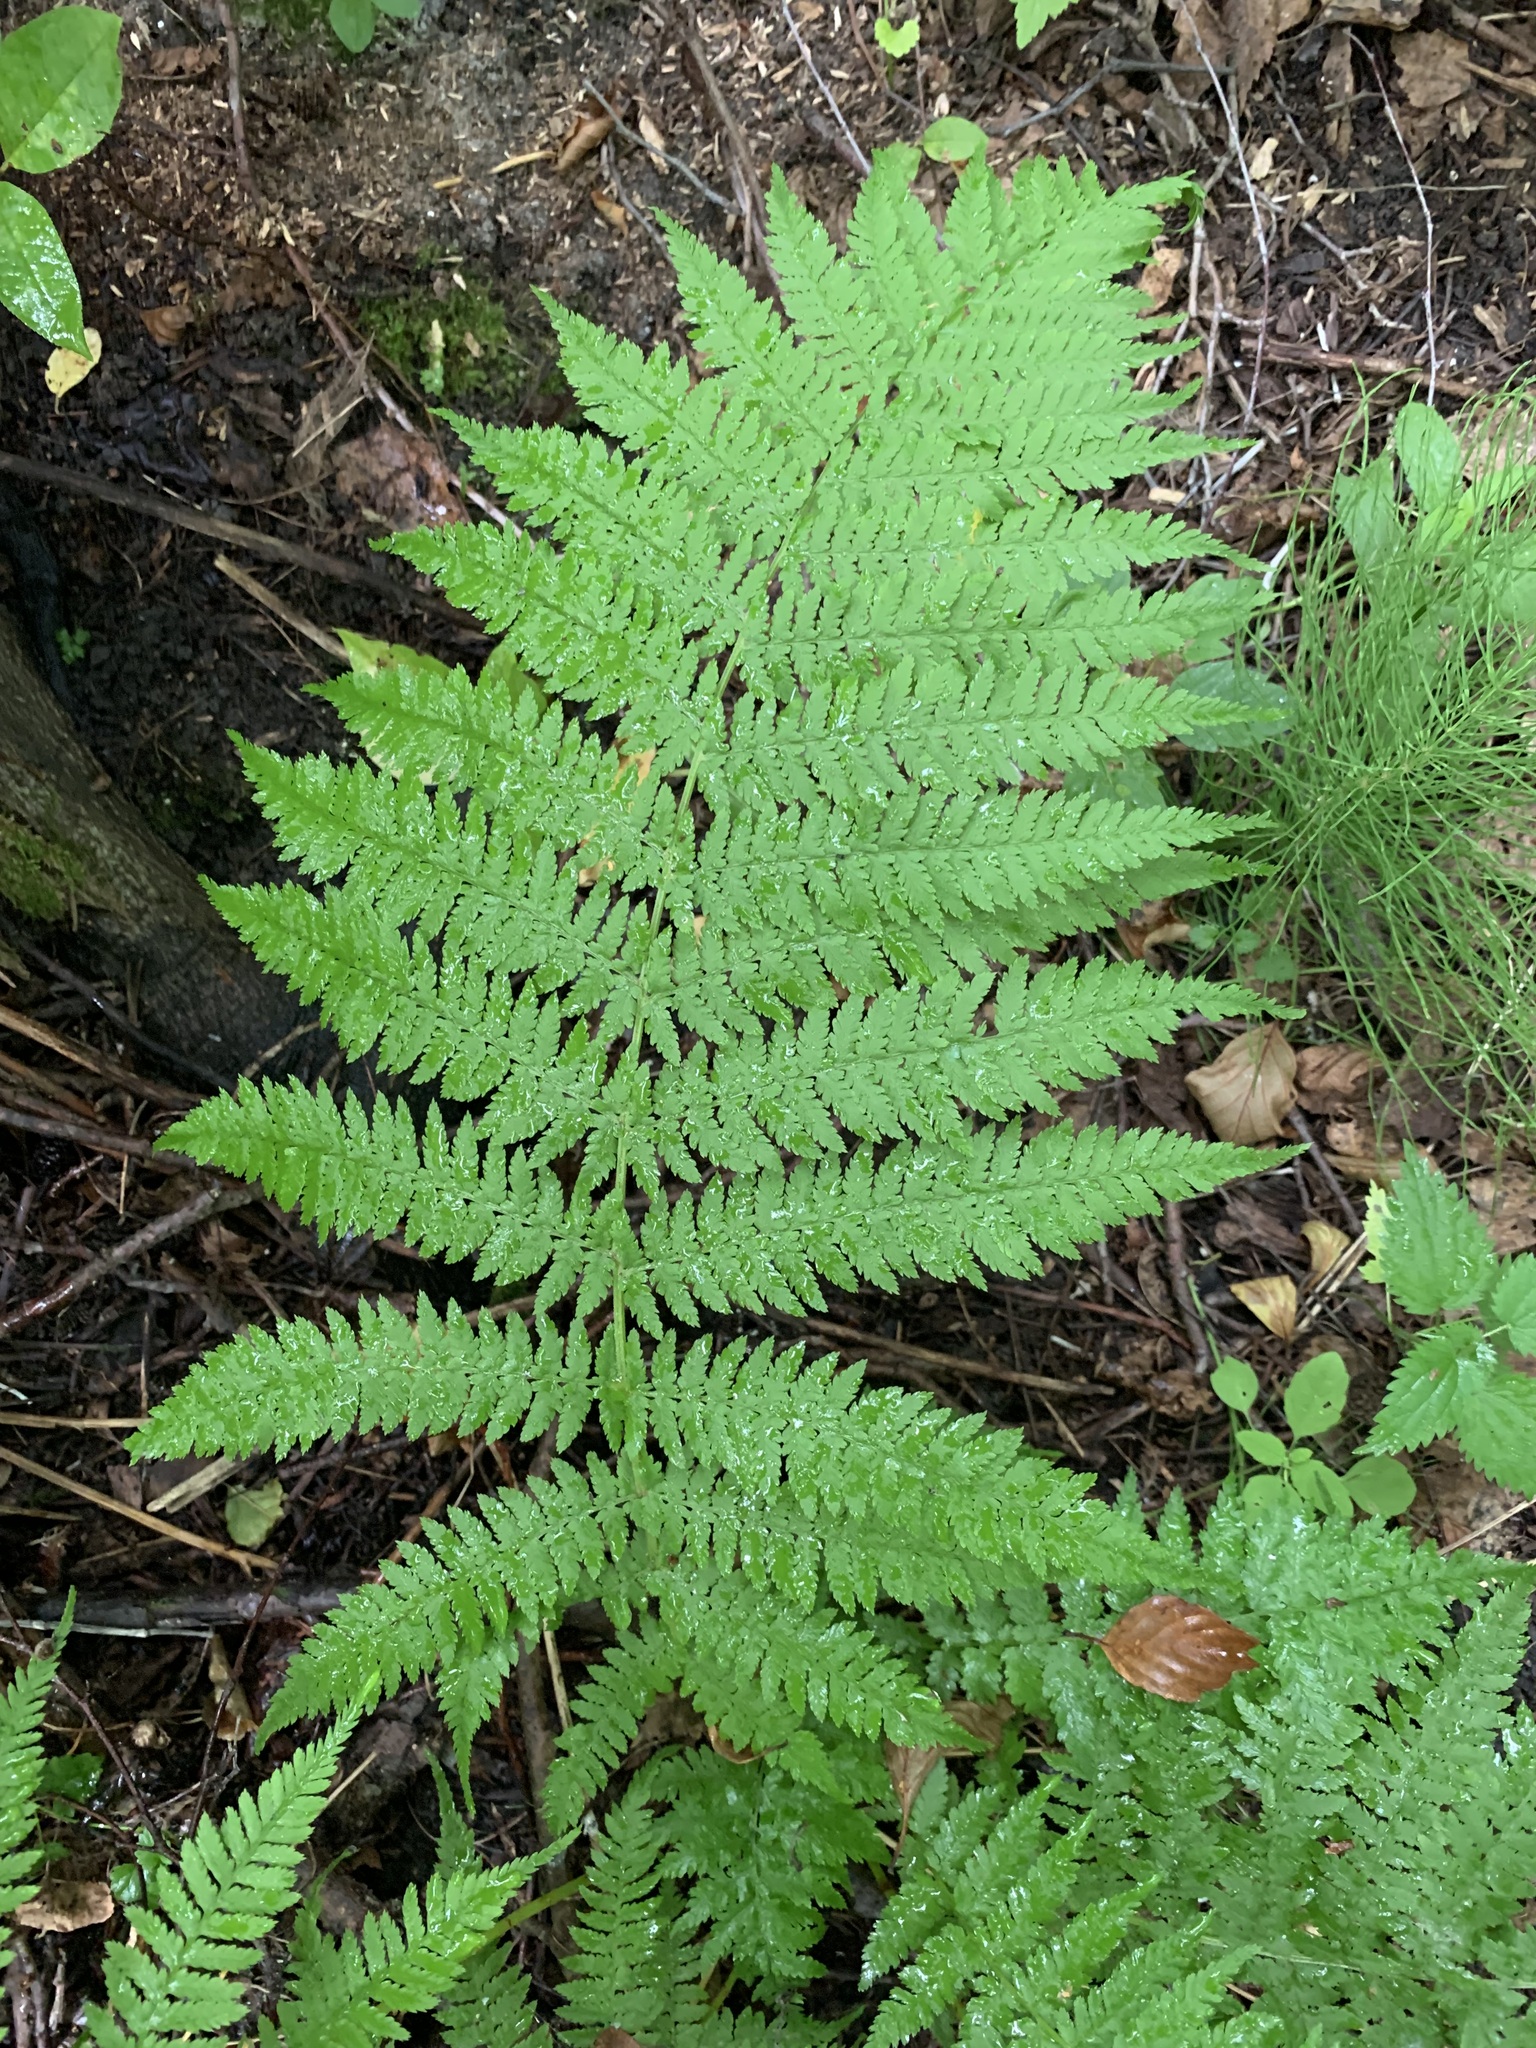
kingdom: Plantae
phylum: Tracheophyta
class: Polypodiopsida
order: Polypodiales
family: Athyriaceae
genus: Athyrium
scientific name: Athyrium filix-femina
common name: Lady fern
